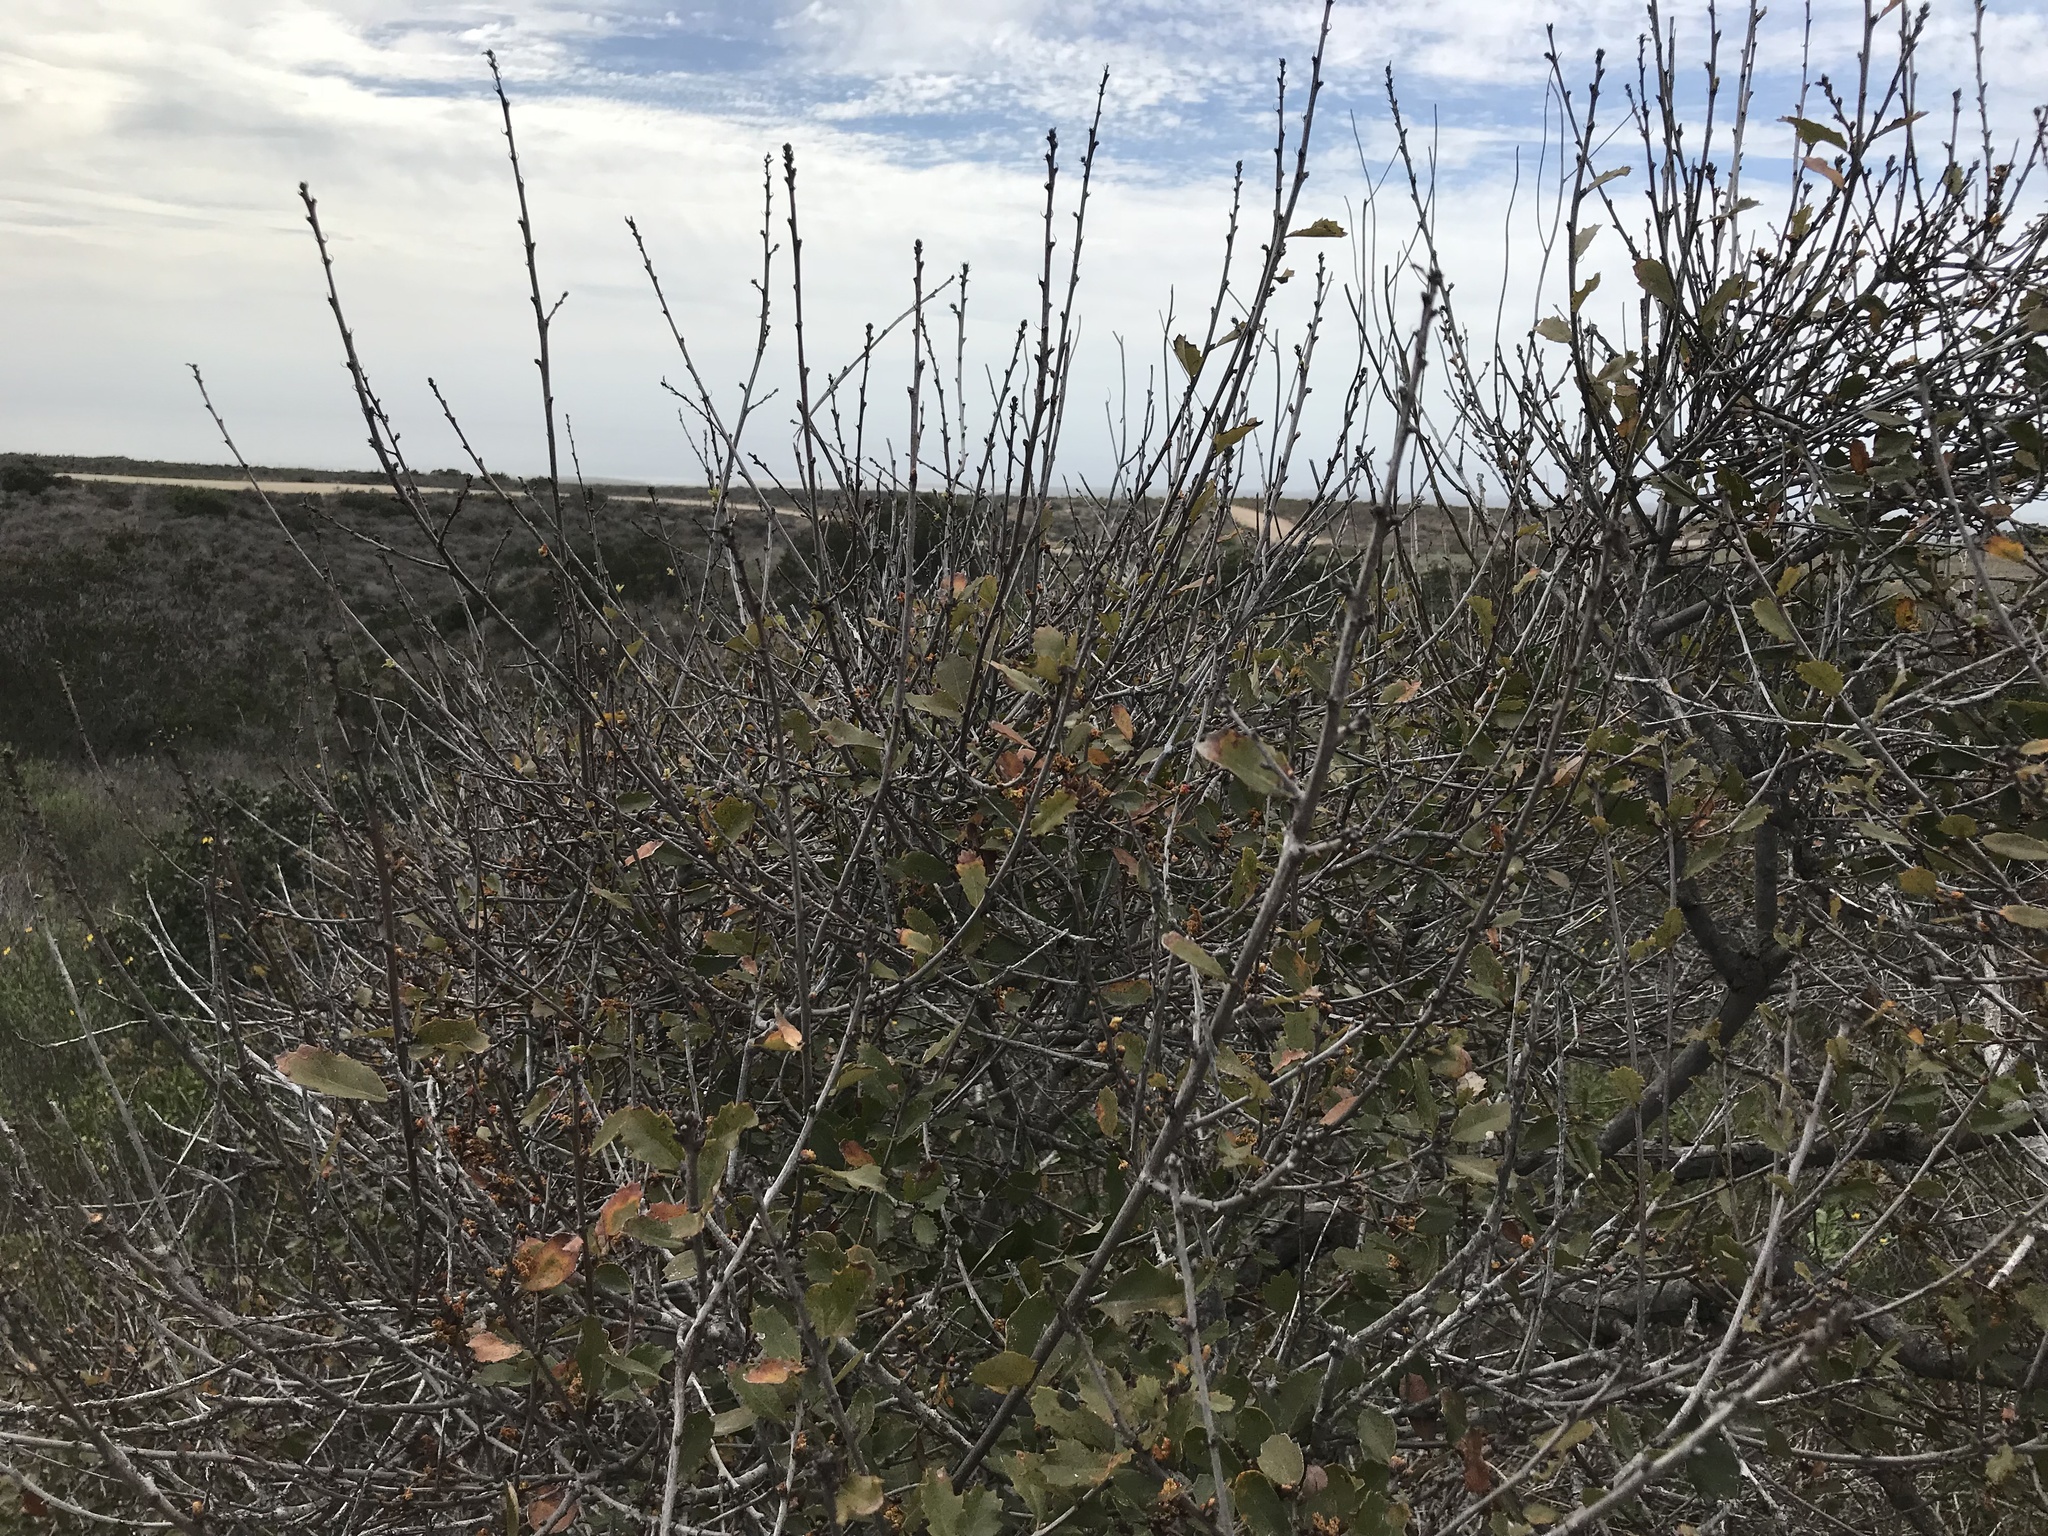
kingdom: Plantae
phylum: Tracheophyta
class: Magnoliopsida
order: Fagales
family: Fagaceae
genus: Quercus
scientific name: Quercus acutidens
